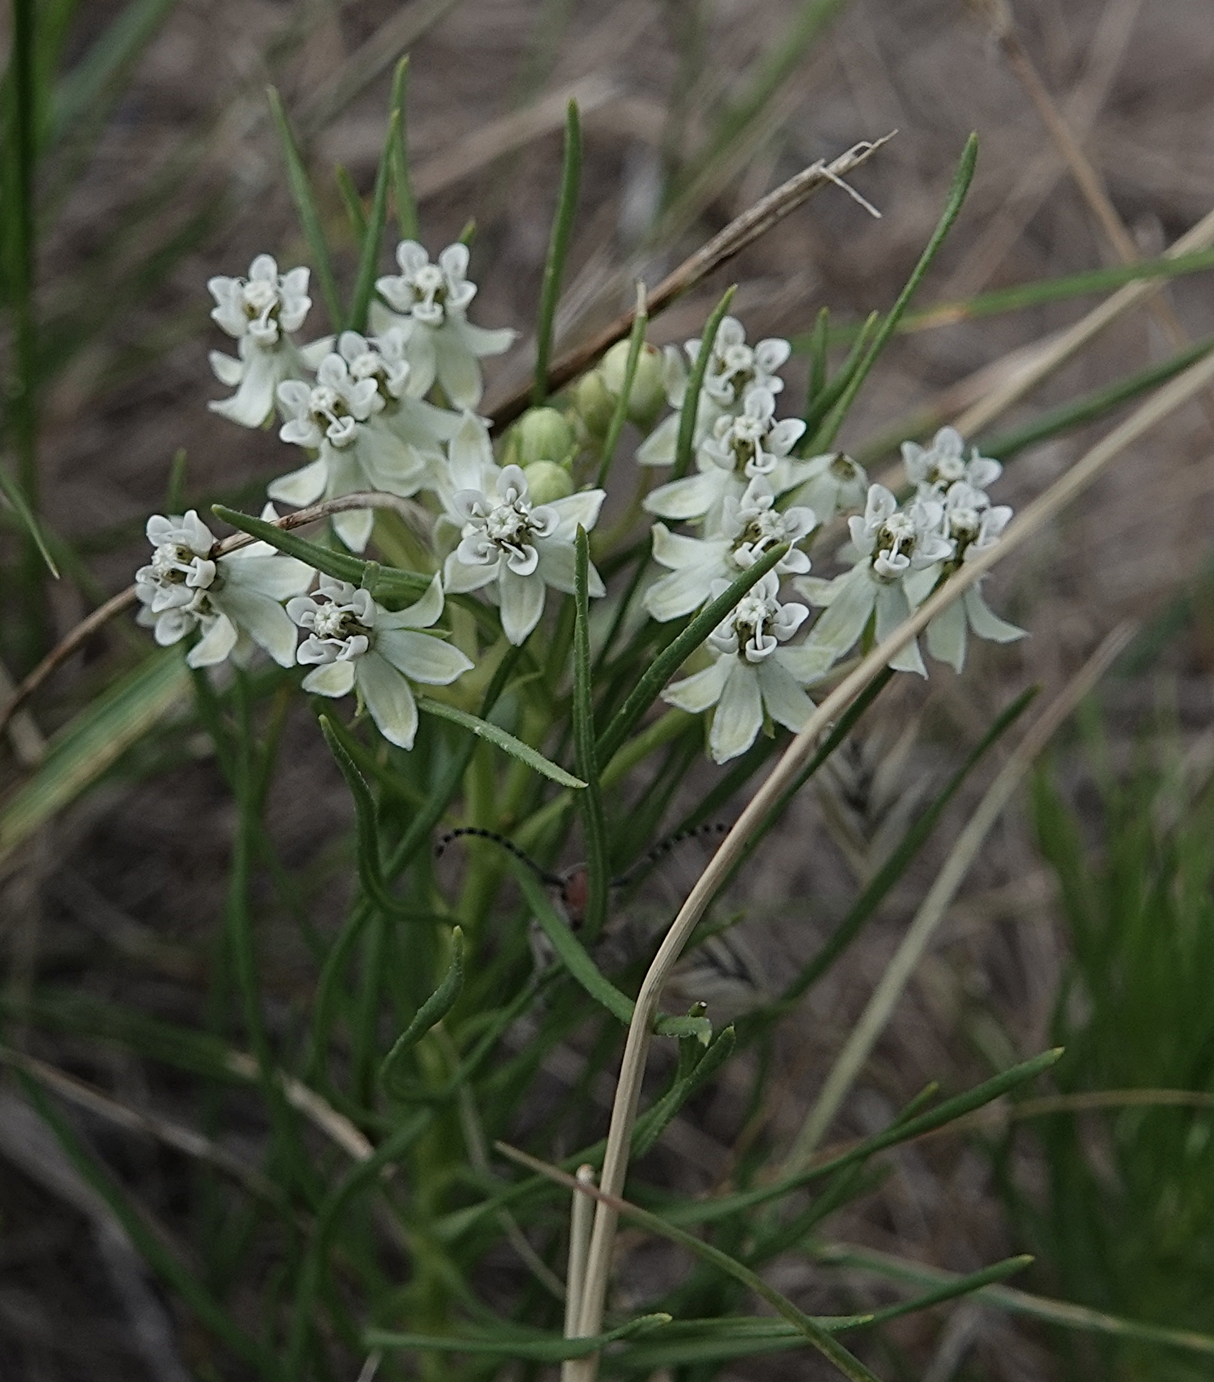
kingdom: Plantae
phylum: Tracheophyta
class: Magnoliopsida
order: Gentianales
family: Apocynaceae
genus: Asclepias
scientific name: Asclepias pumila
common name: Dwarf milkweed
